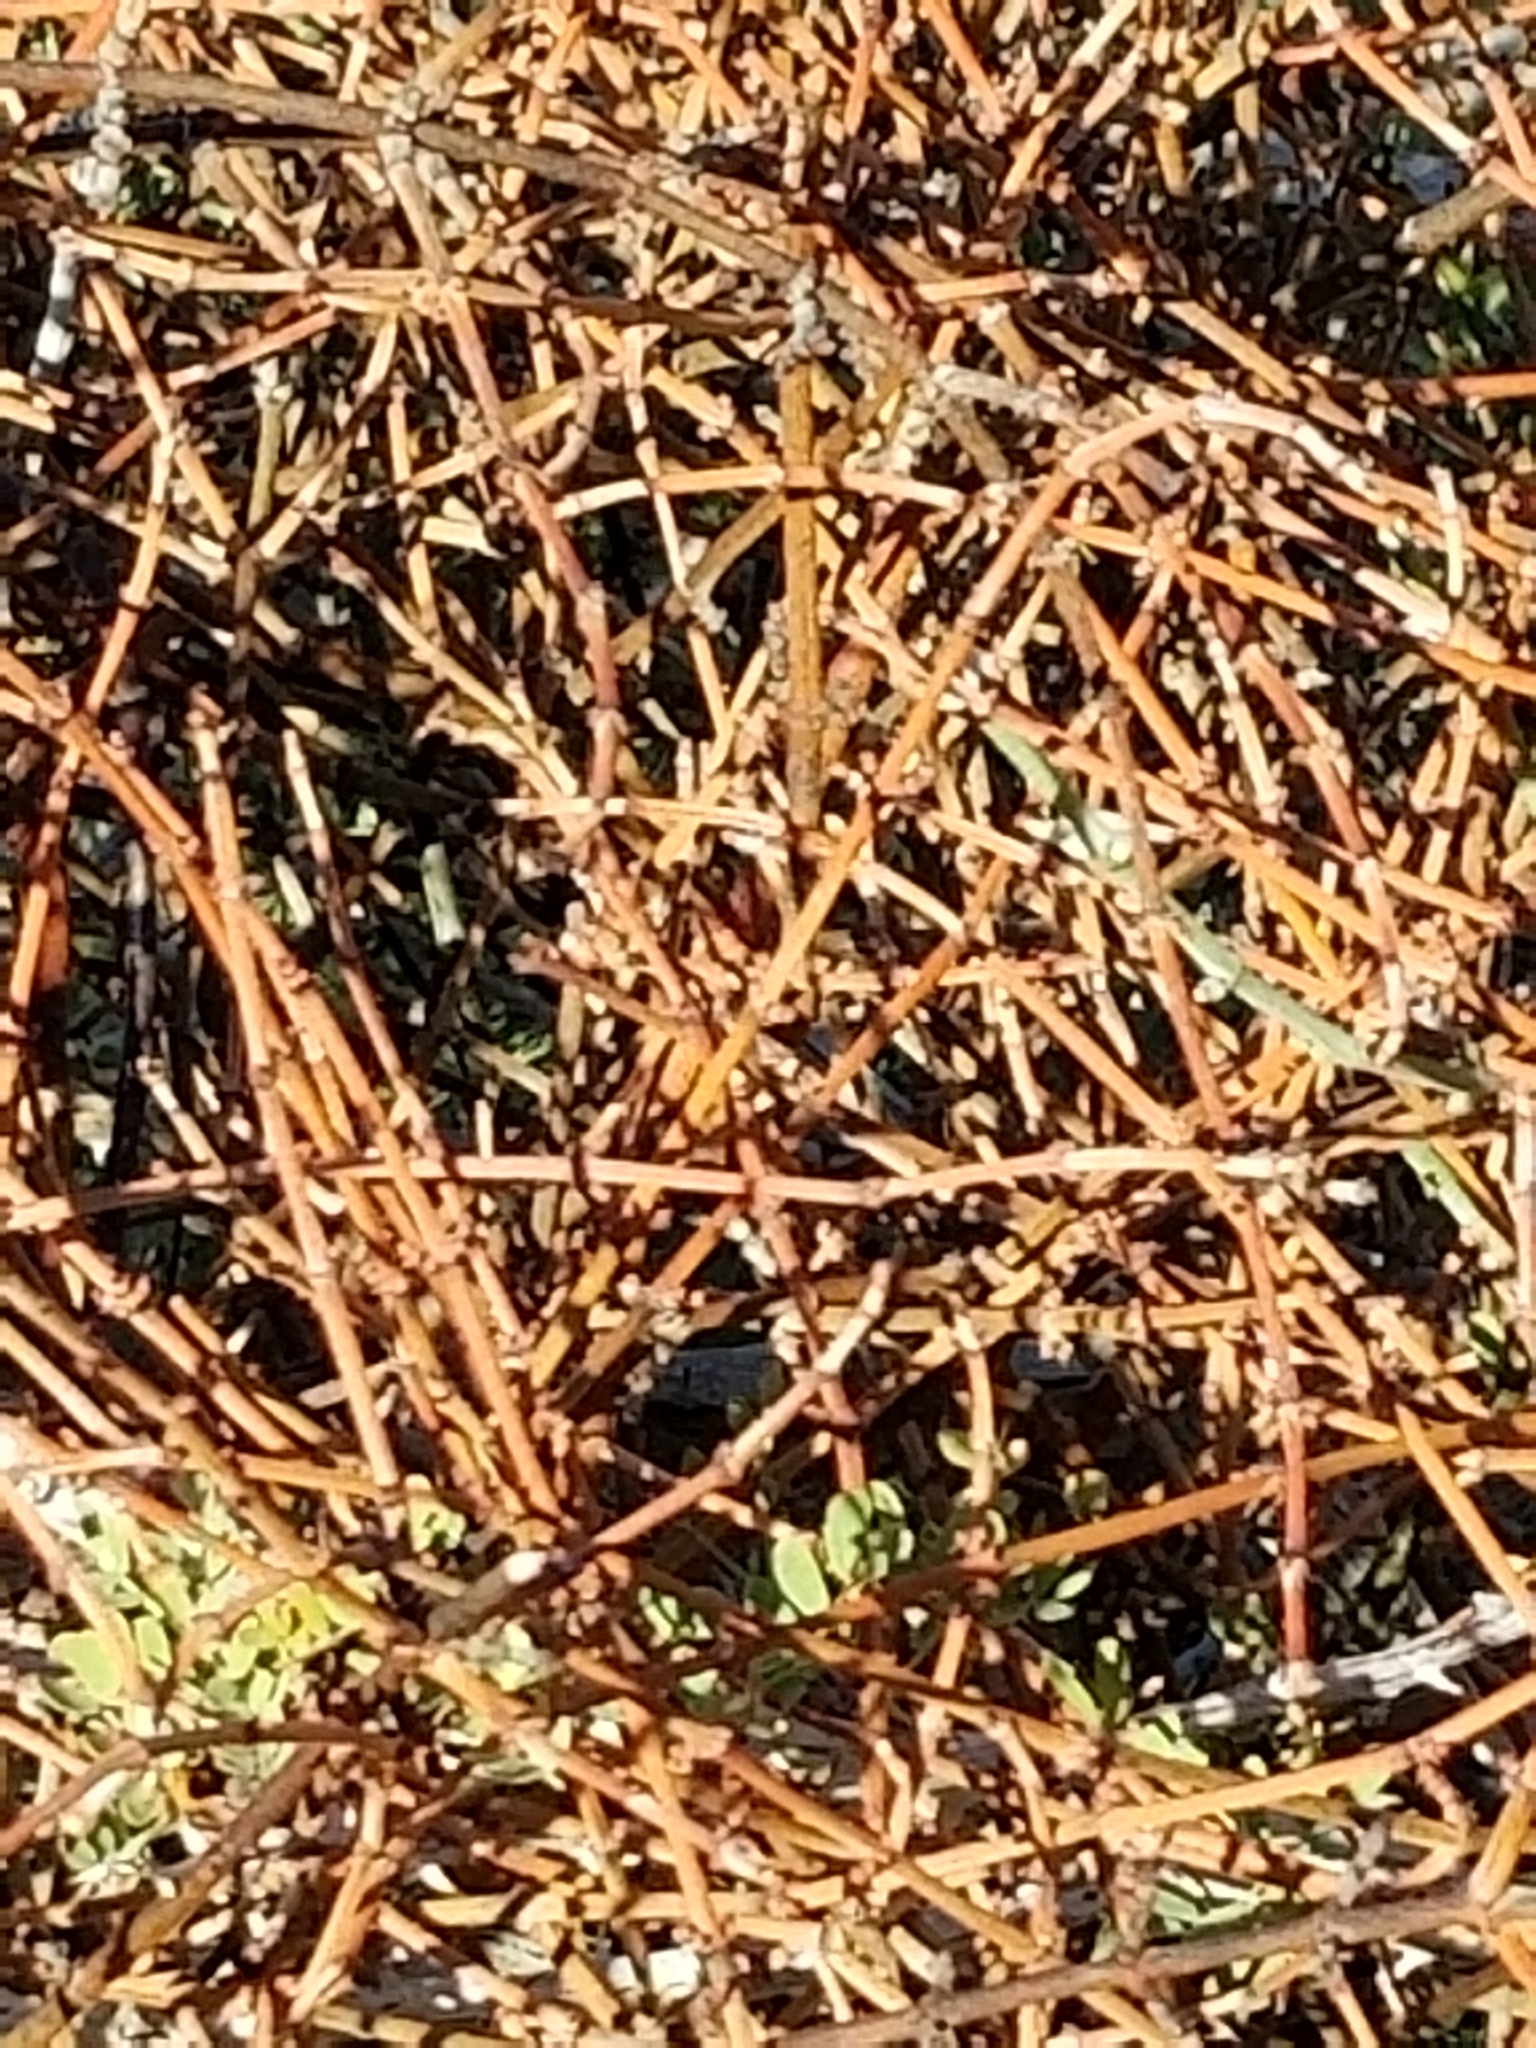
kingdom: Plantae
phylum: Tracheophyta
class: Magnoliopsida
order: Santalales
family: Viscaceae
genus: Phoradendron
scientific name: Phoradendron californicum
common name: Acacia mistletoe
